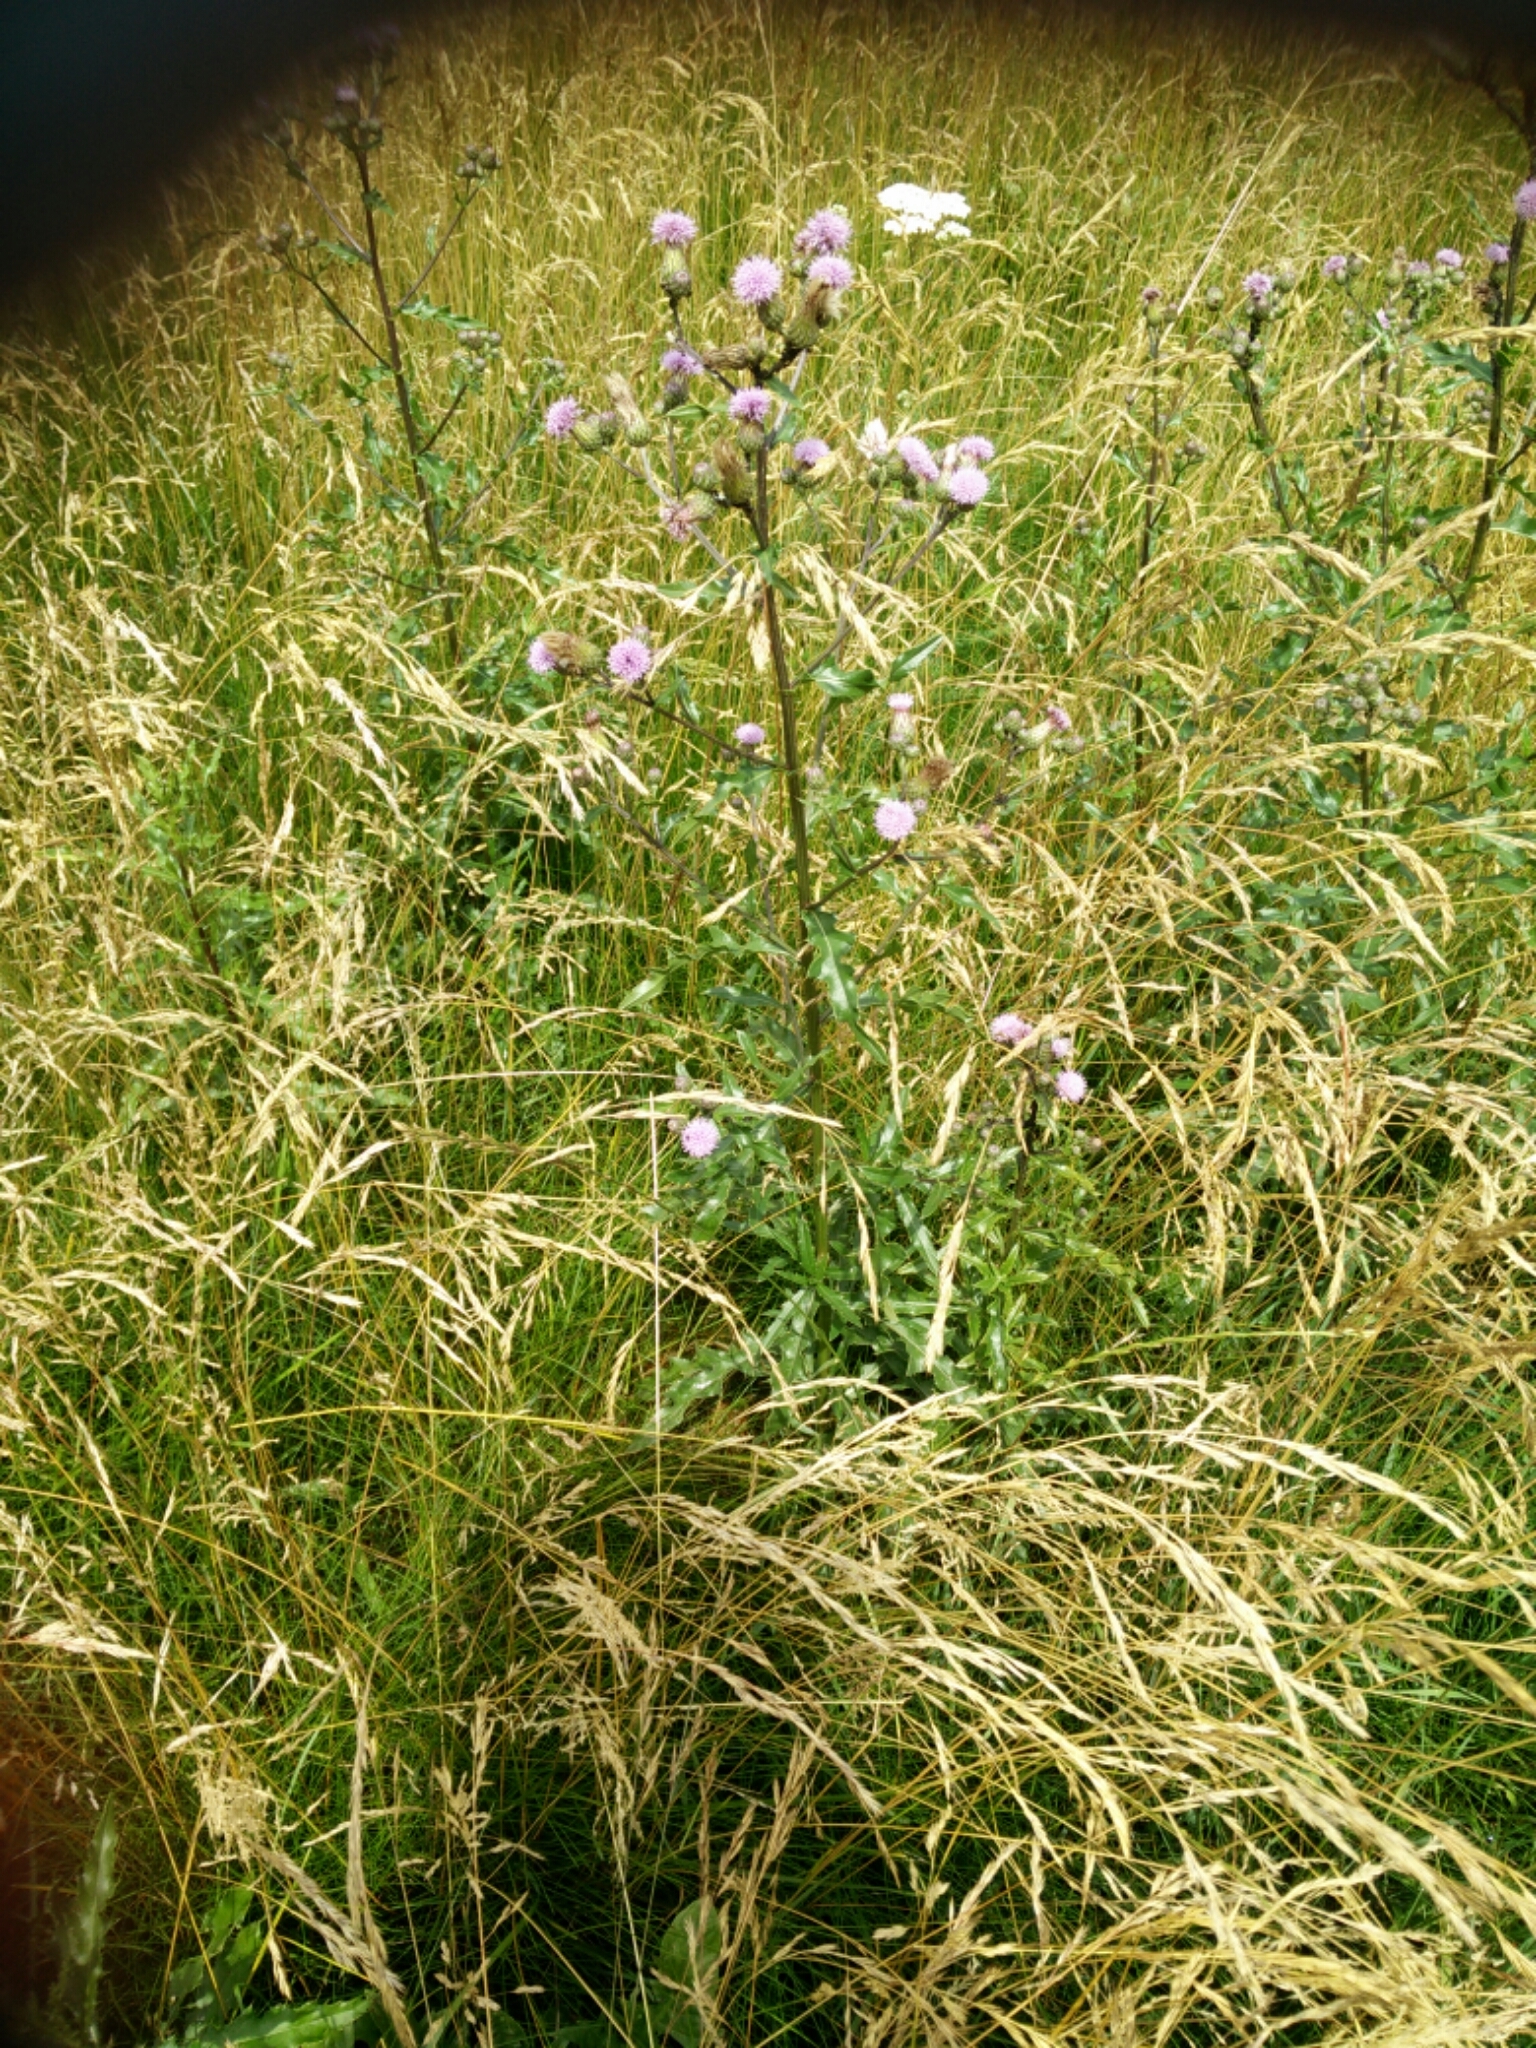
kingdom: Plantae
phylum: Tracheophyta
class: Magnoliopsida
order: Asterales
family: Asteraceae
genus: Cirsium
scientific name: Cirsium arvense
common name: Creeping thistle
